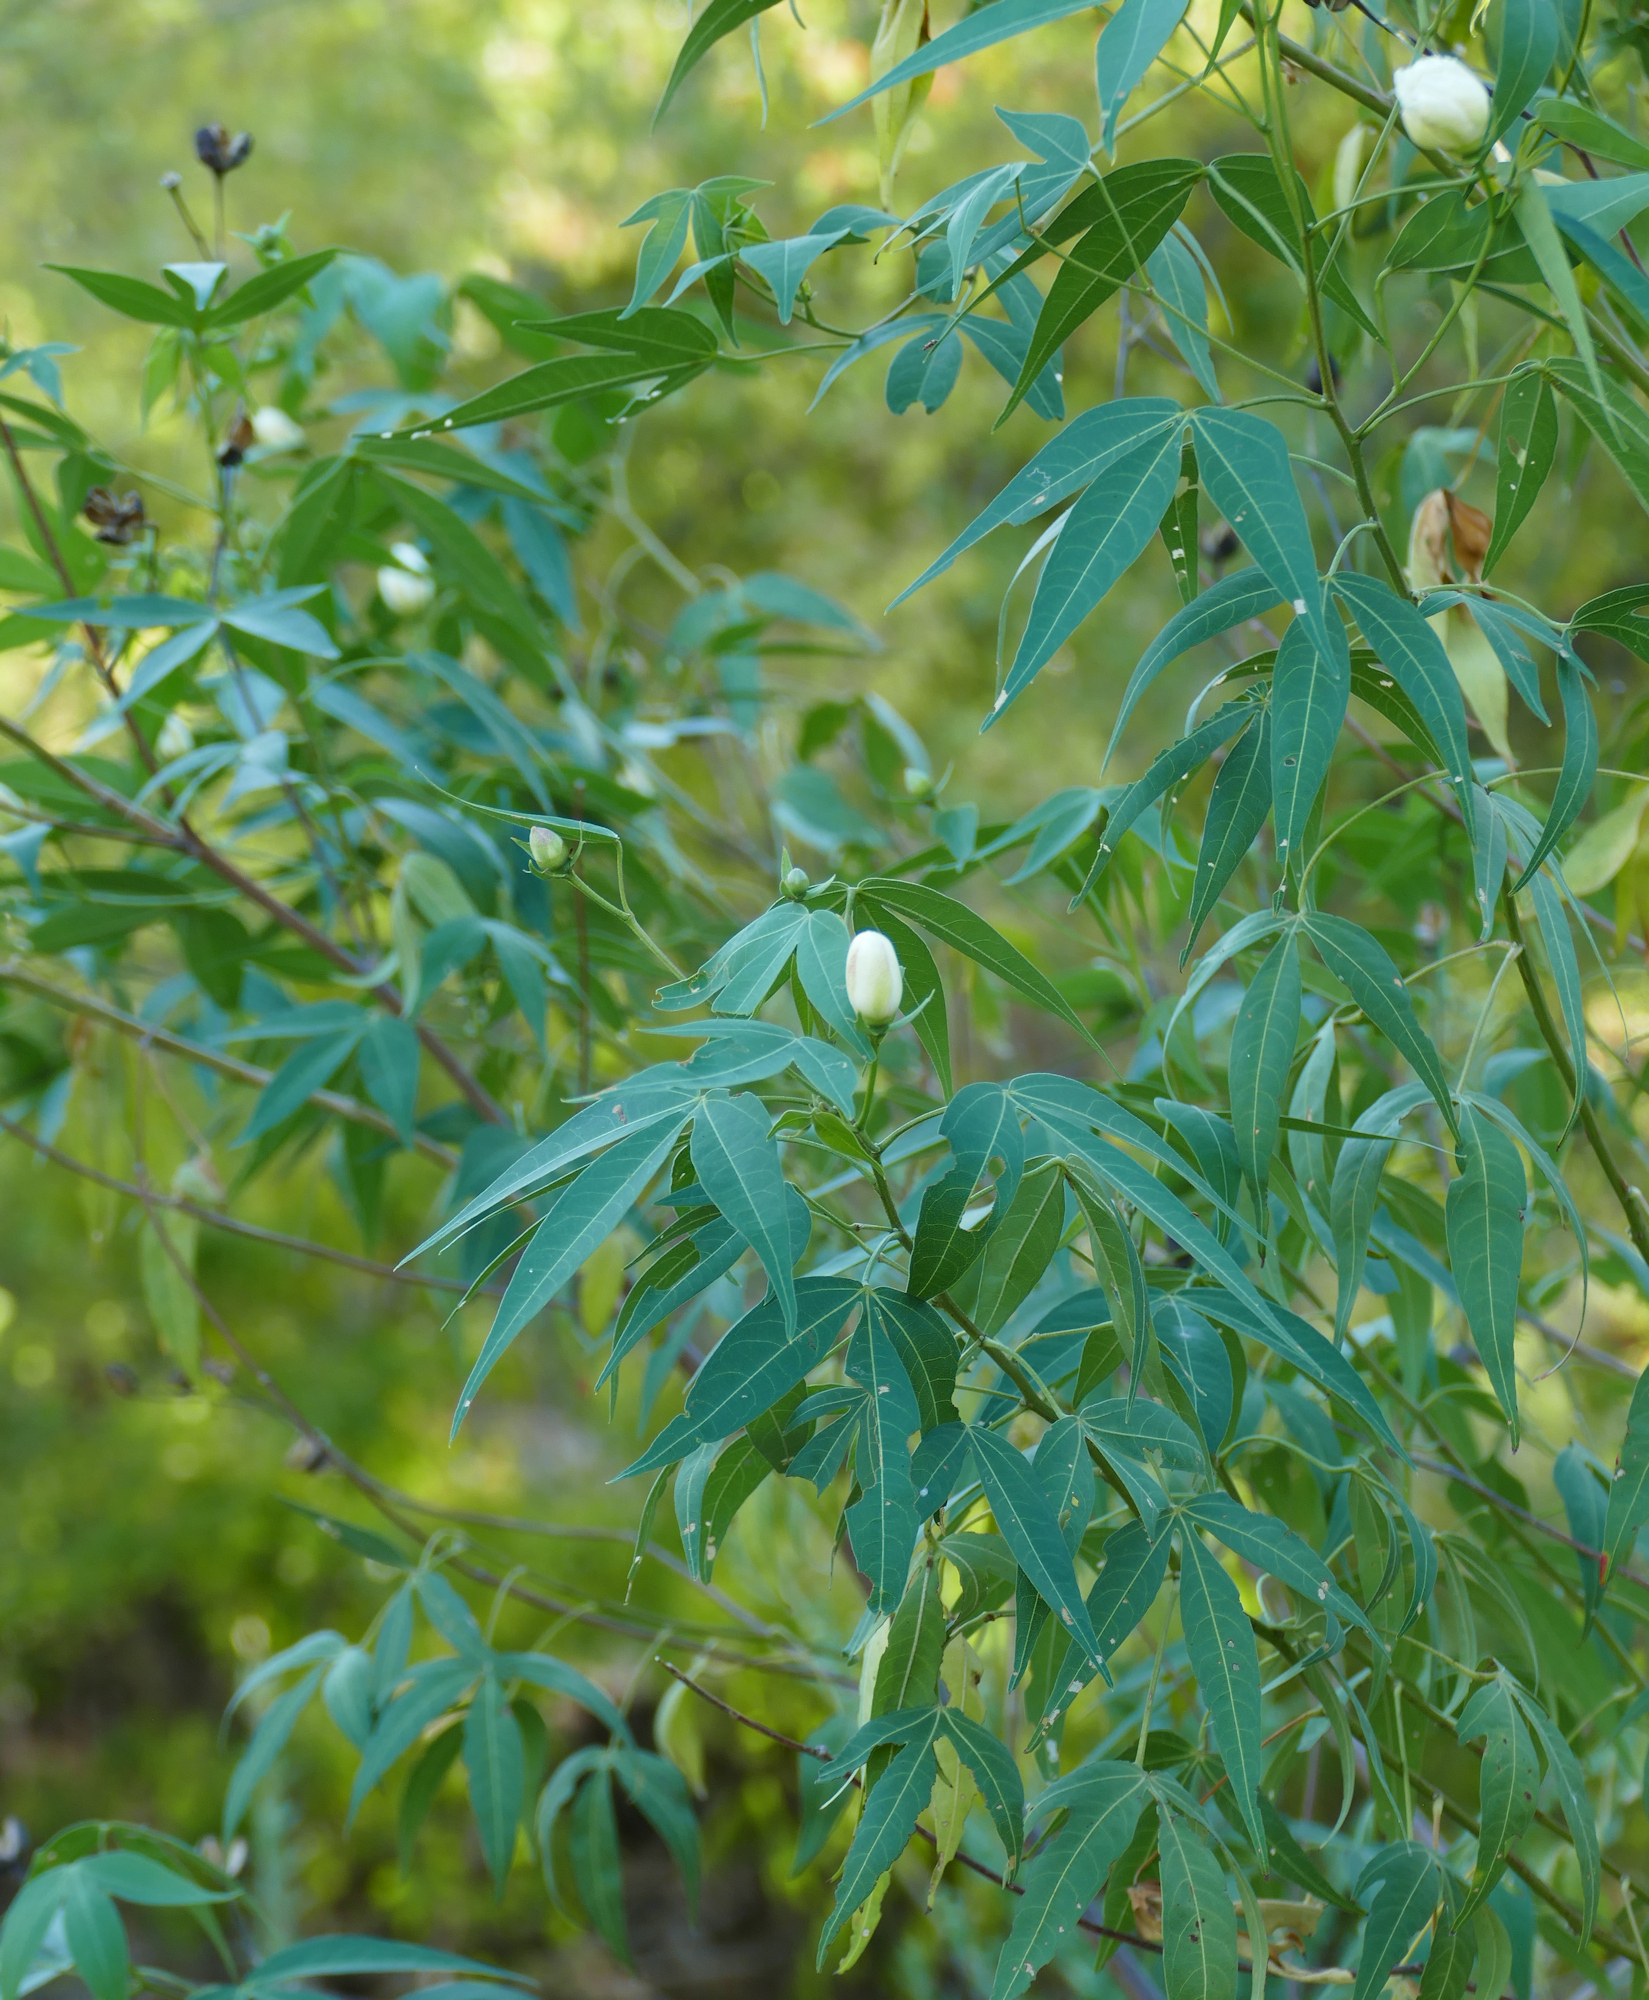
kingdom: Plantae
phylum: Tracheophyta
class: Magnoliopsida
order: Malvales
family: Malvaceae
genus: Gossypium
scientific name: Gossypium thurberi
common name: Desert cotton
